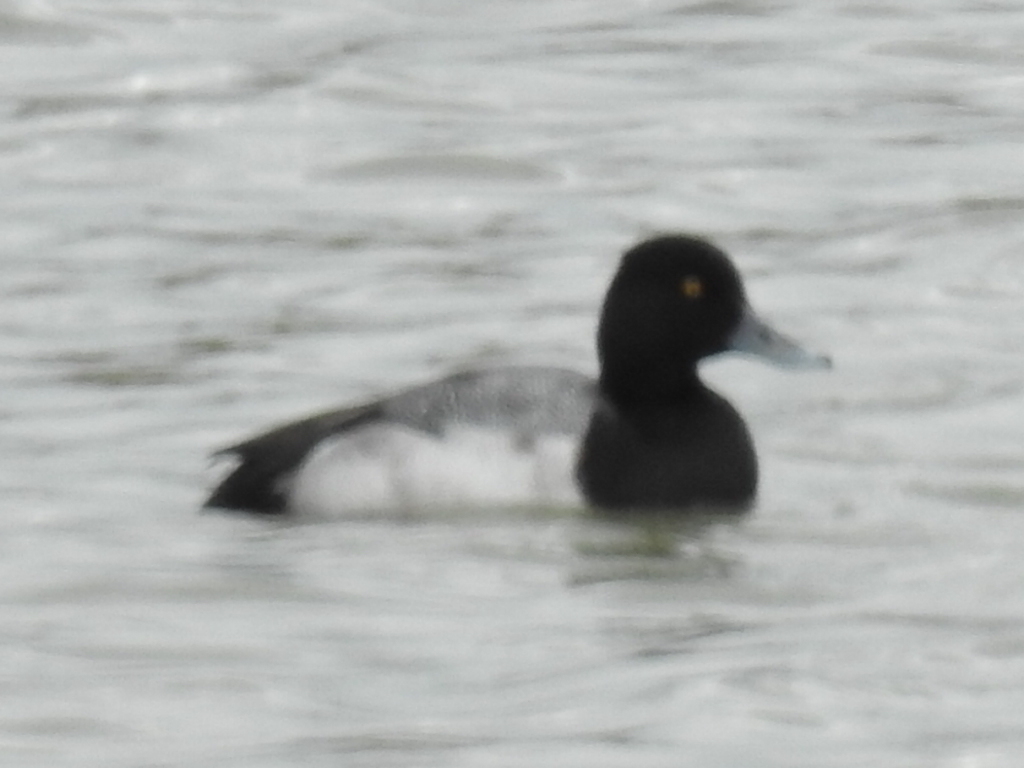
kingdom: Animalia
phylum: Chordata
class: Aves
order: Anseriformes
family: Anatidae
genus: Aythya
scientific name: Aythya affinis
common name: Lesser scaup
